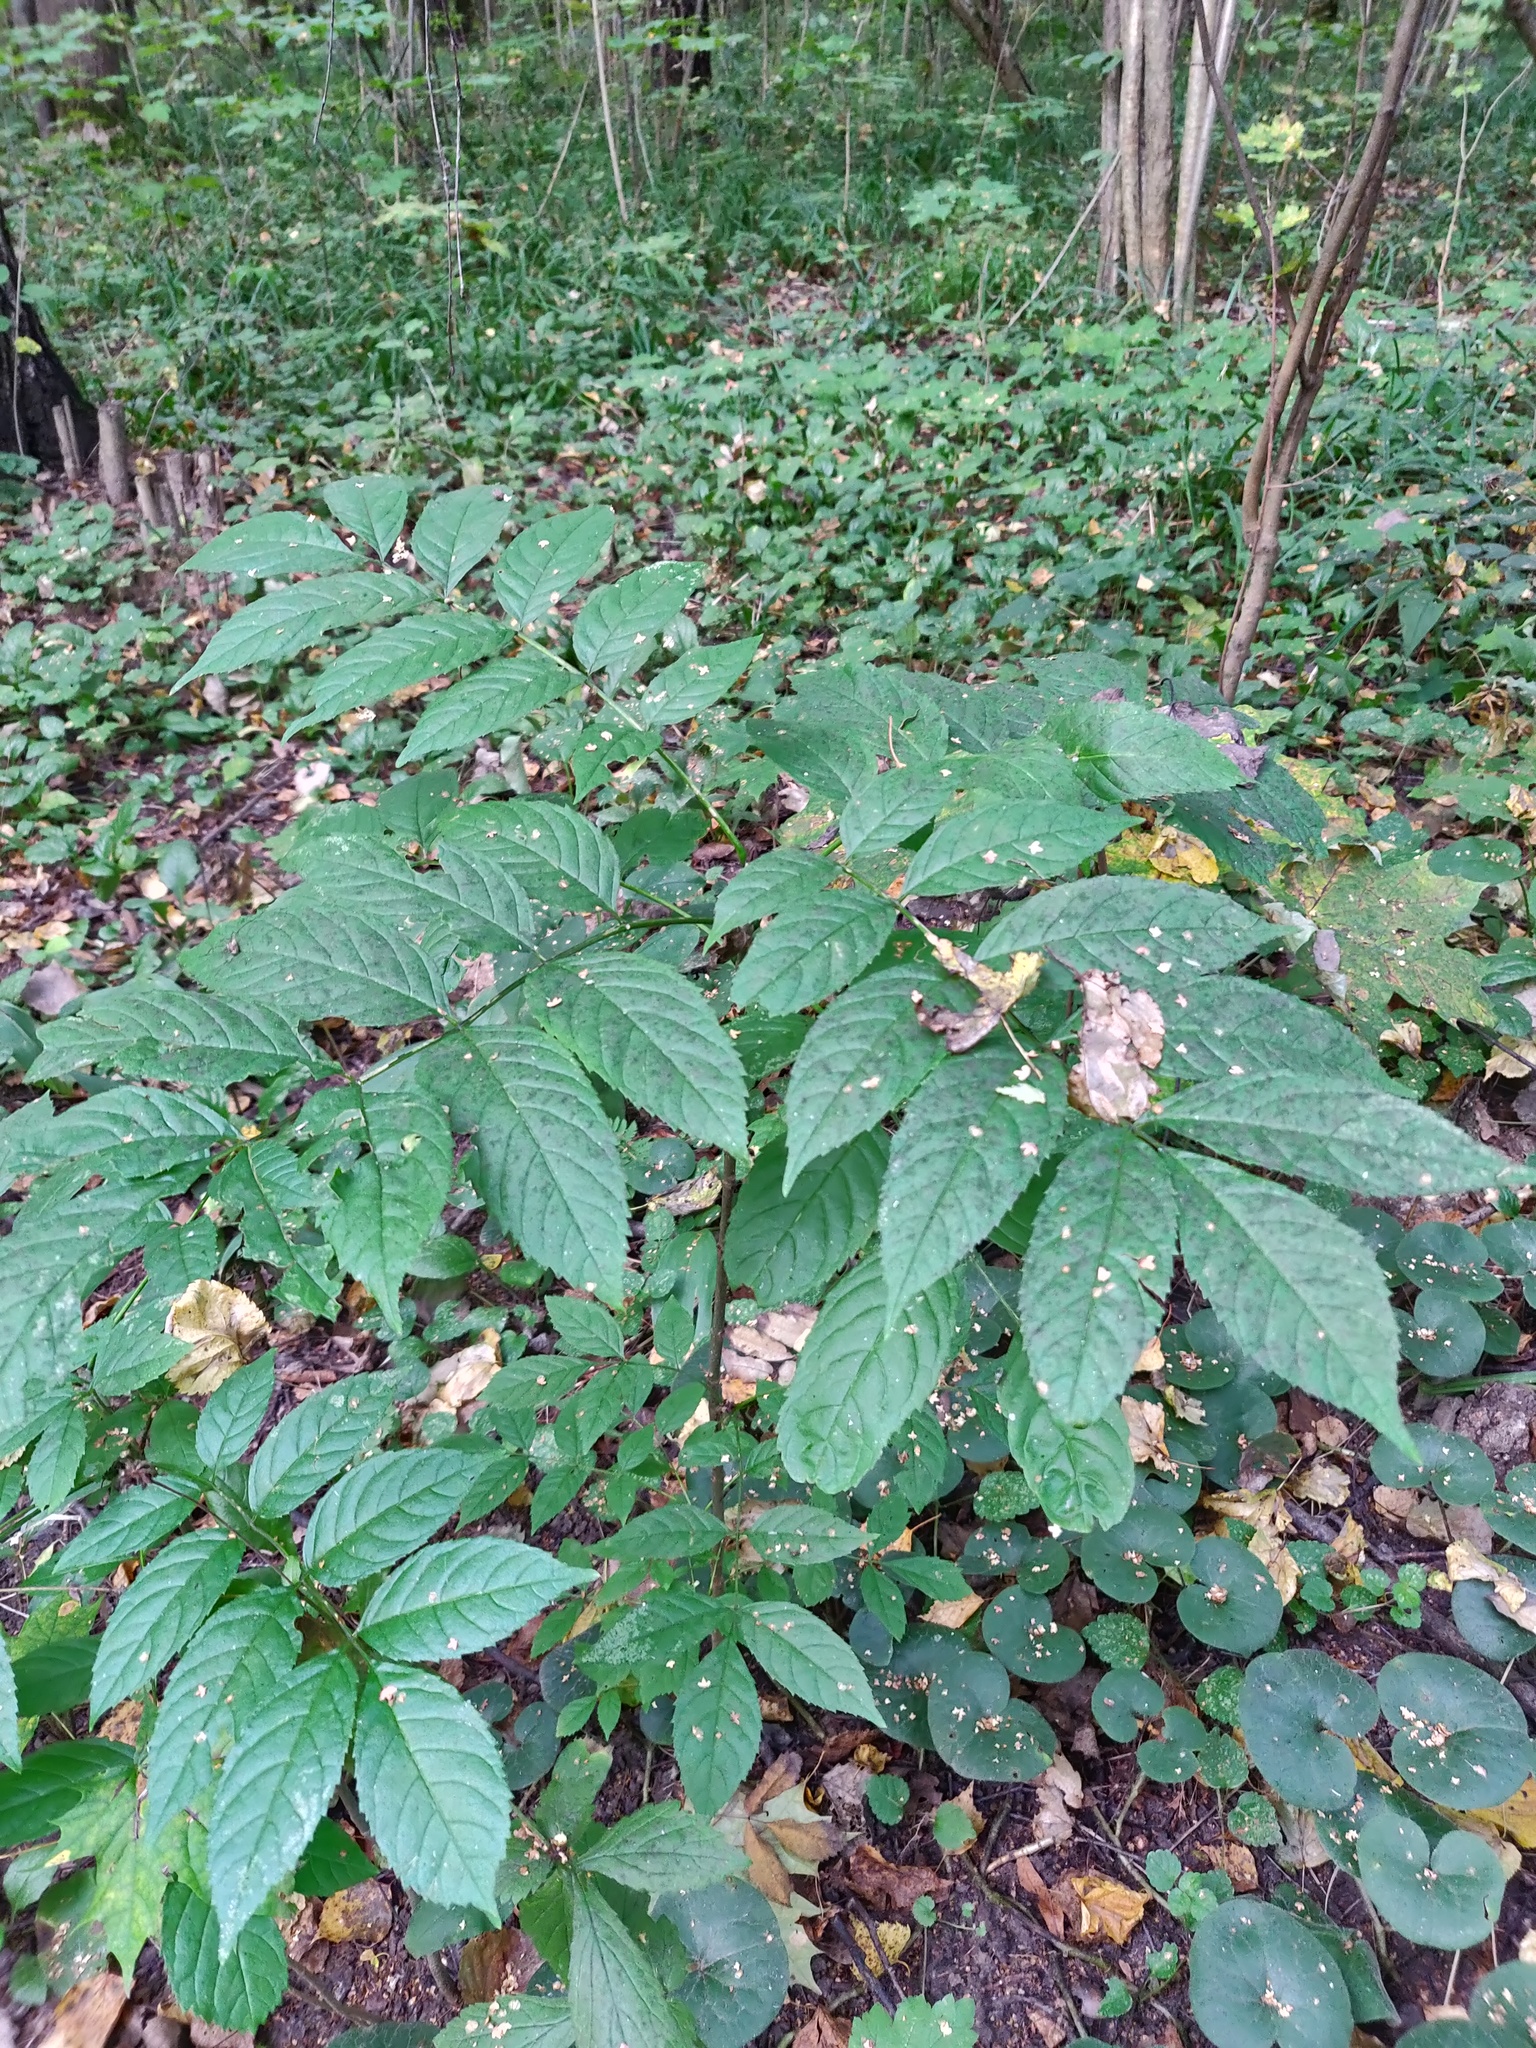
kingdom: Plantae
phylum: Tracheophyta
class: Magnoliopsida
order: Lamiales
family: Oleaceae
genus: Fraxinus
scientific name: Fraxinus excelsior
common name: European ash
